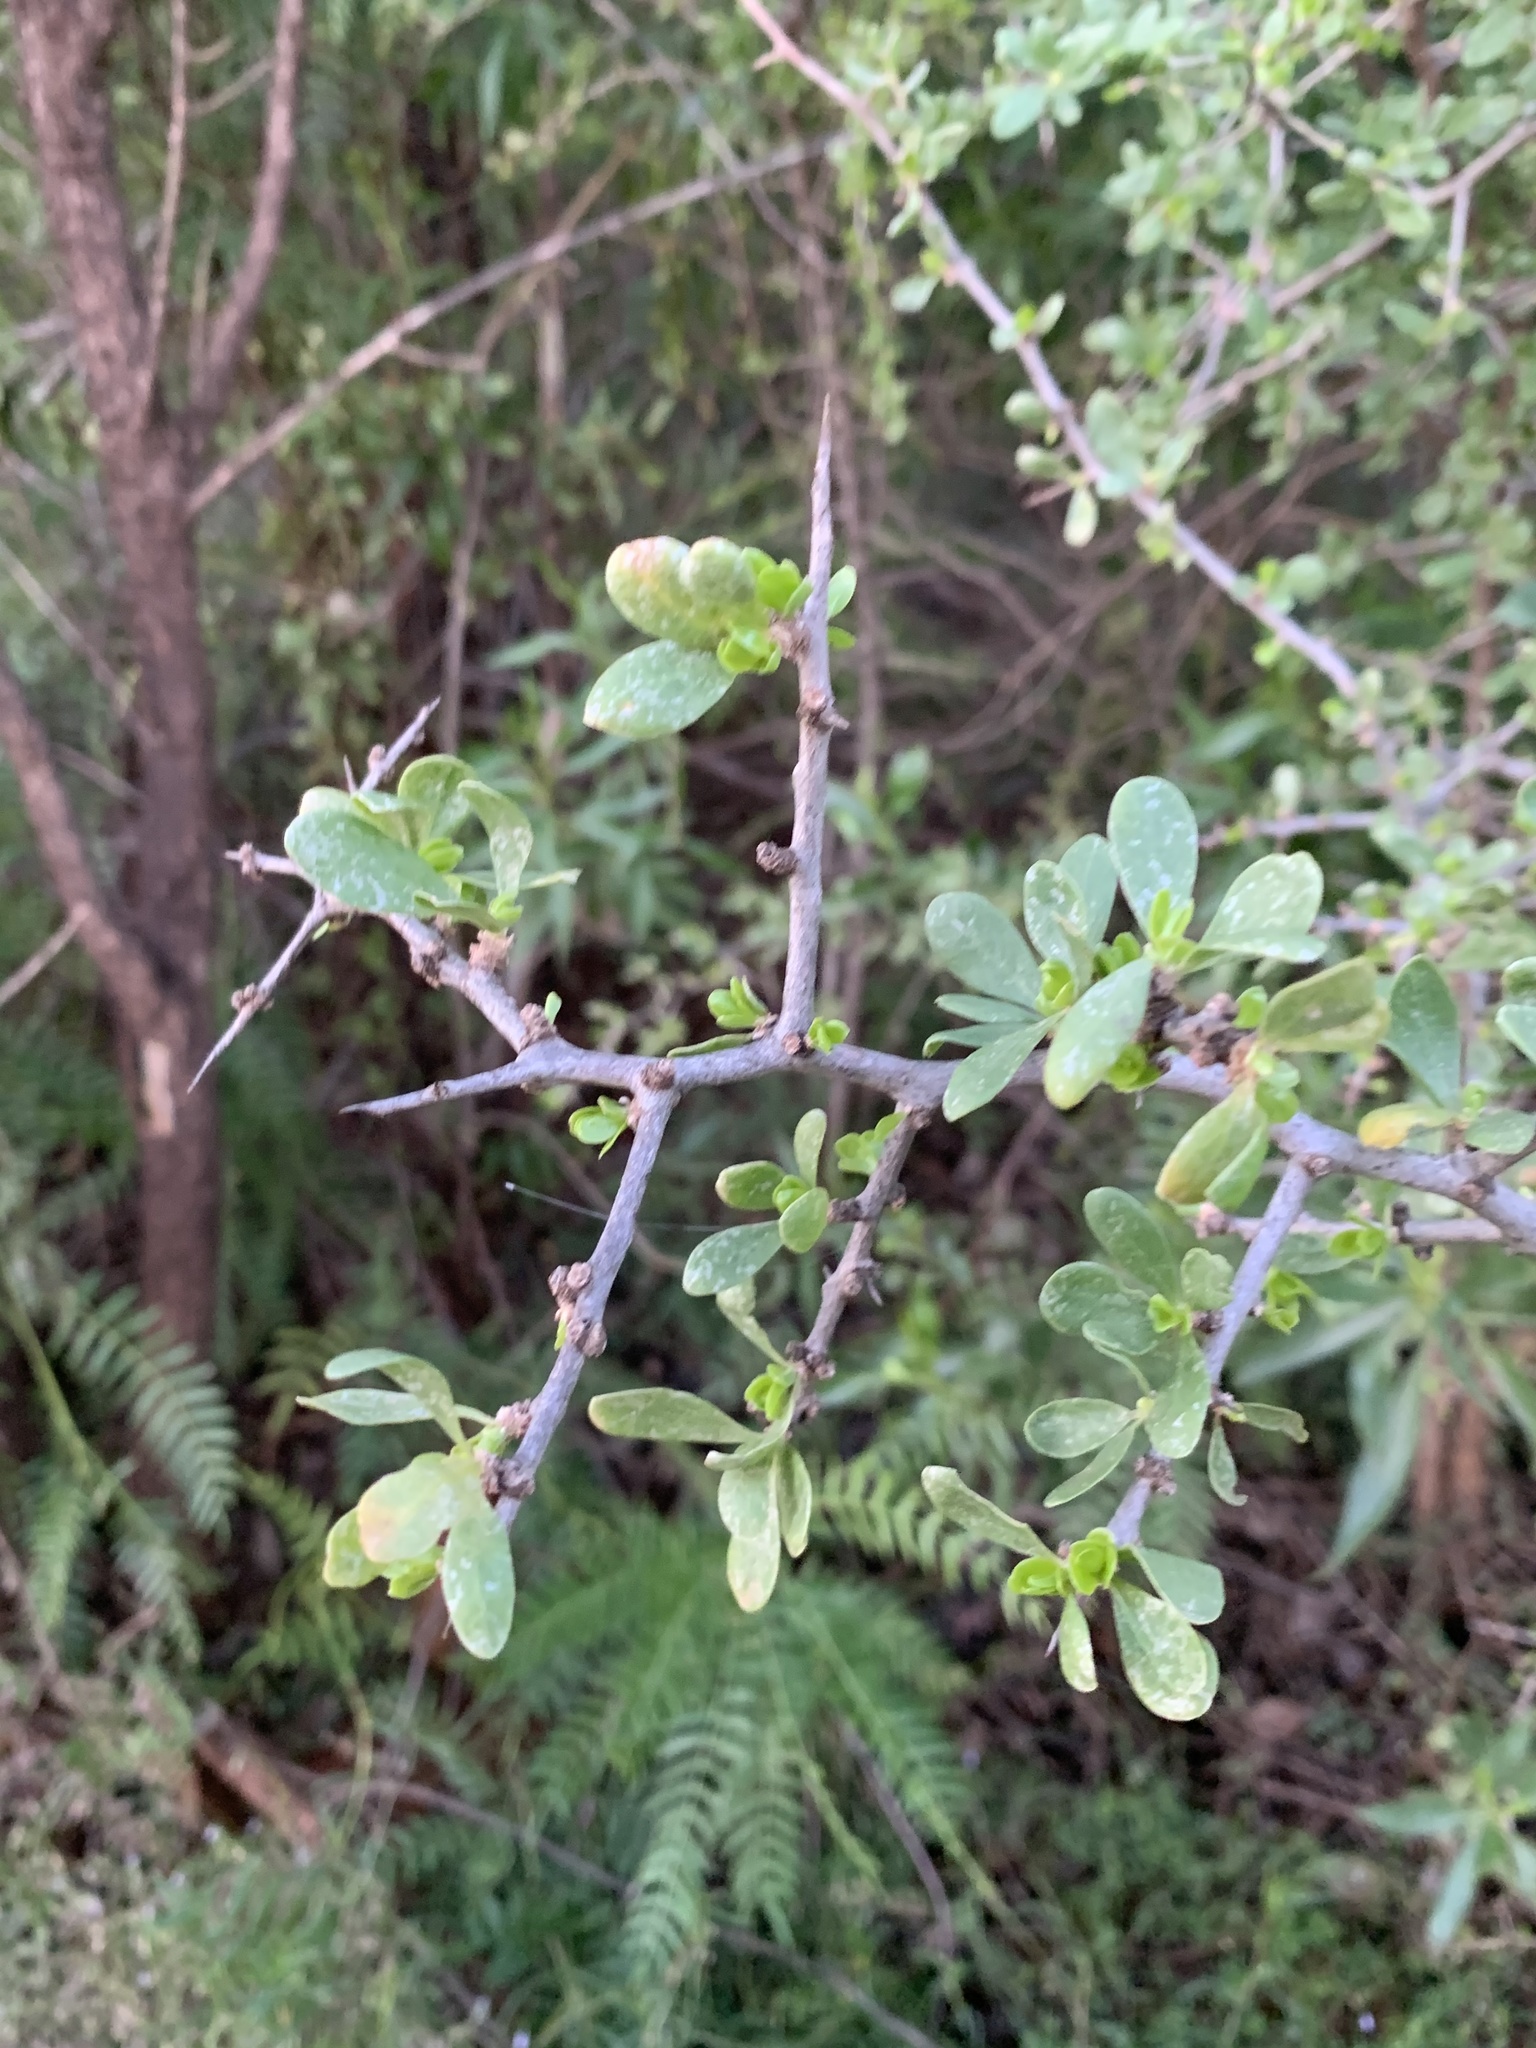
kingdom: Plantae
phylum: Tracheophyta
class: Magnoliopsida
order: Solanales
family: Solanaceae
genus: Lycium
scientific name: Lycium ferocissimum
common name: African boxthorn
